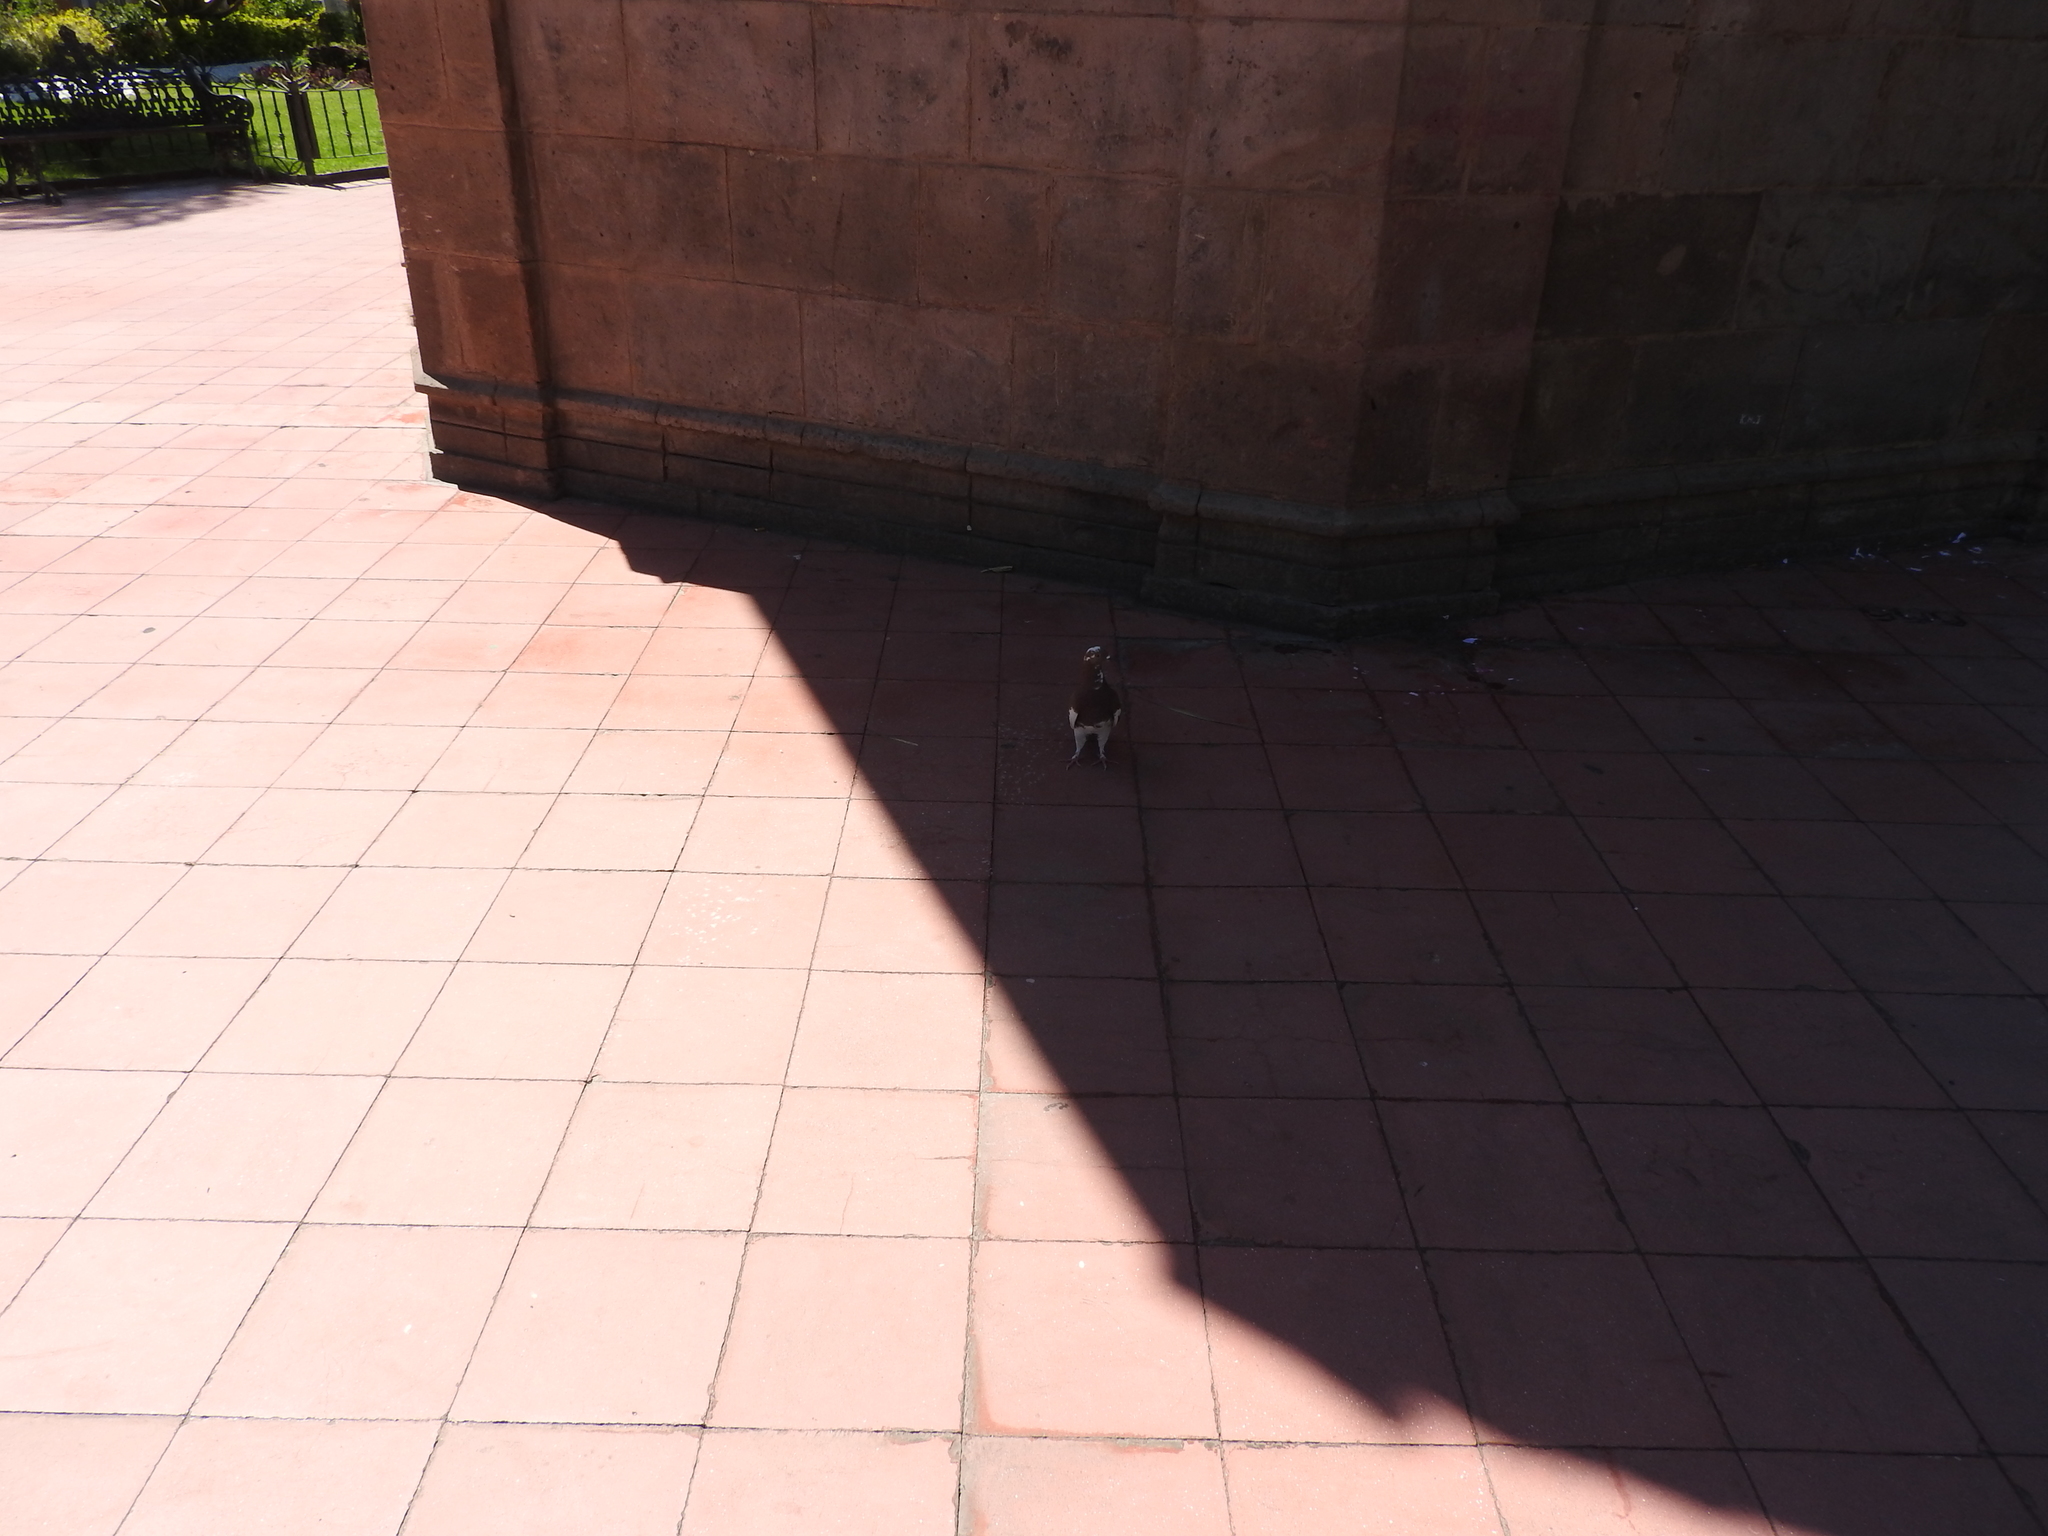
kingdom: Animalia
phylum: Chordata
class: Aves
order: Columbiformes
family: Columbidae
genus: Columba
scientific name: Columba livia
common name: Rock pigeon
